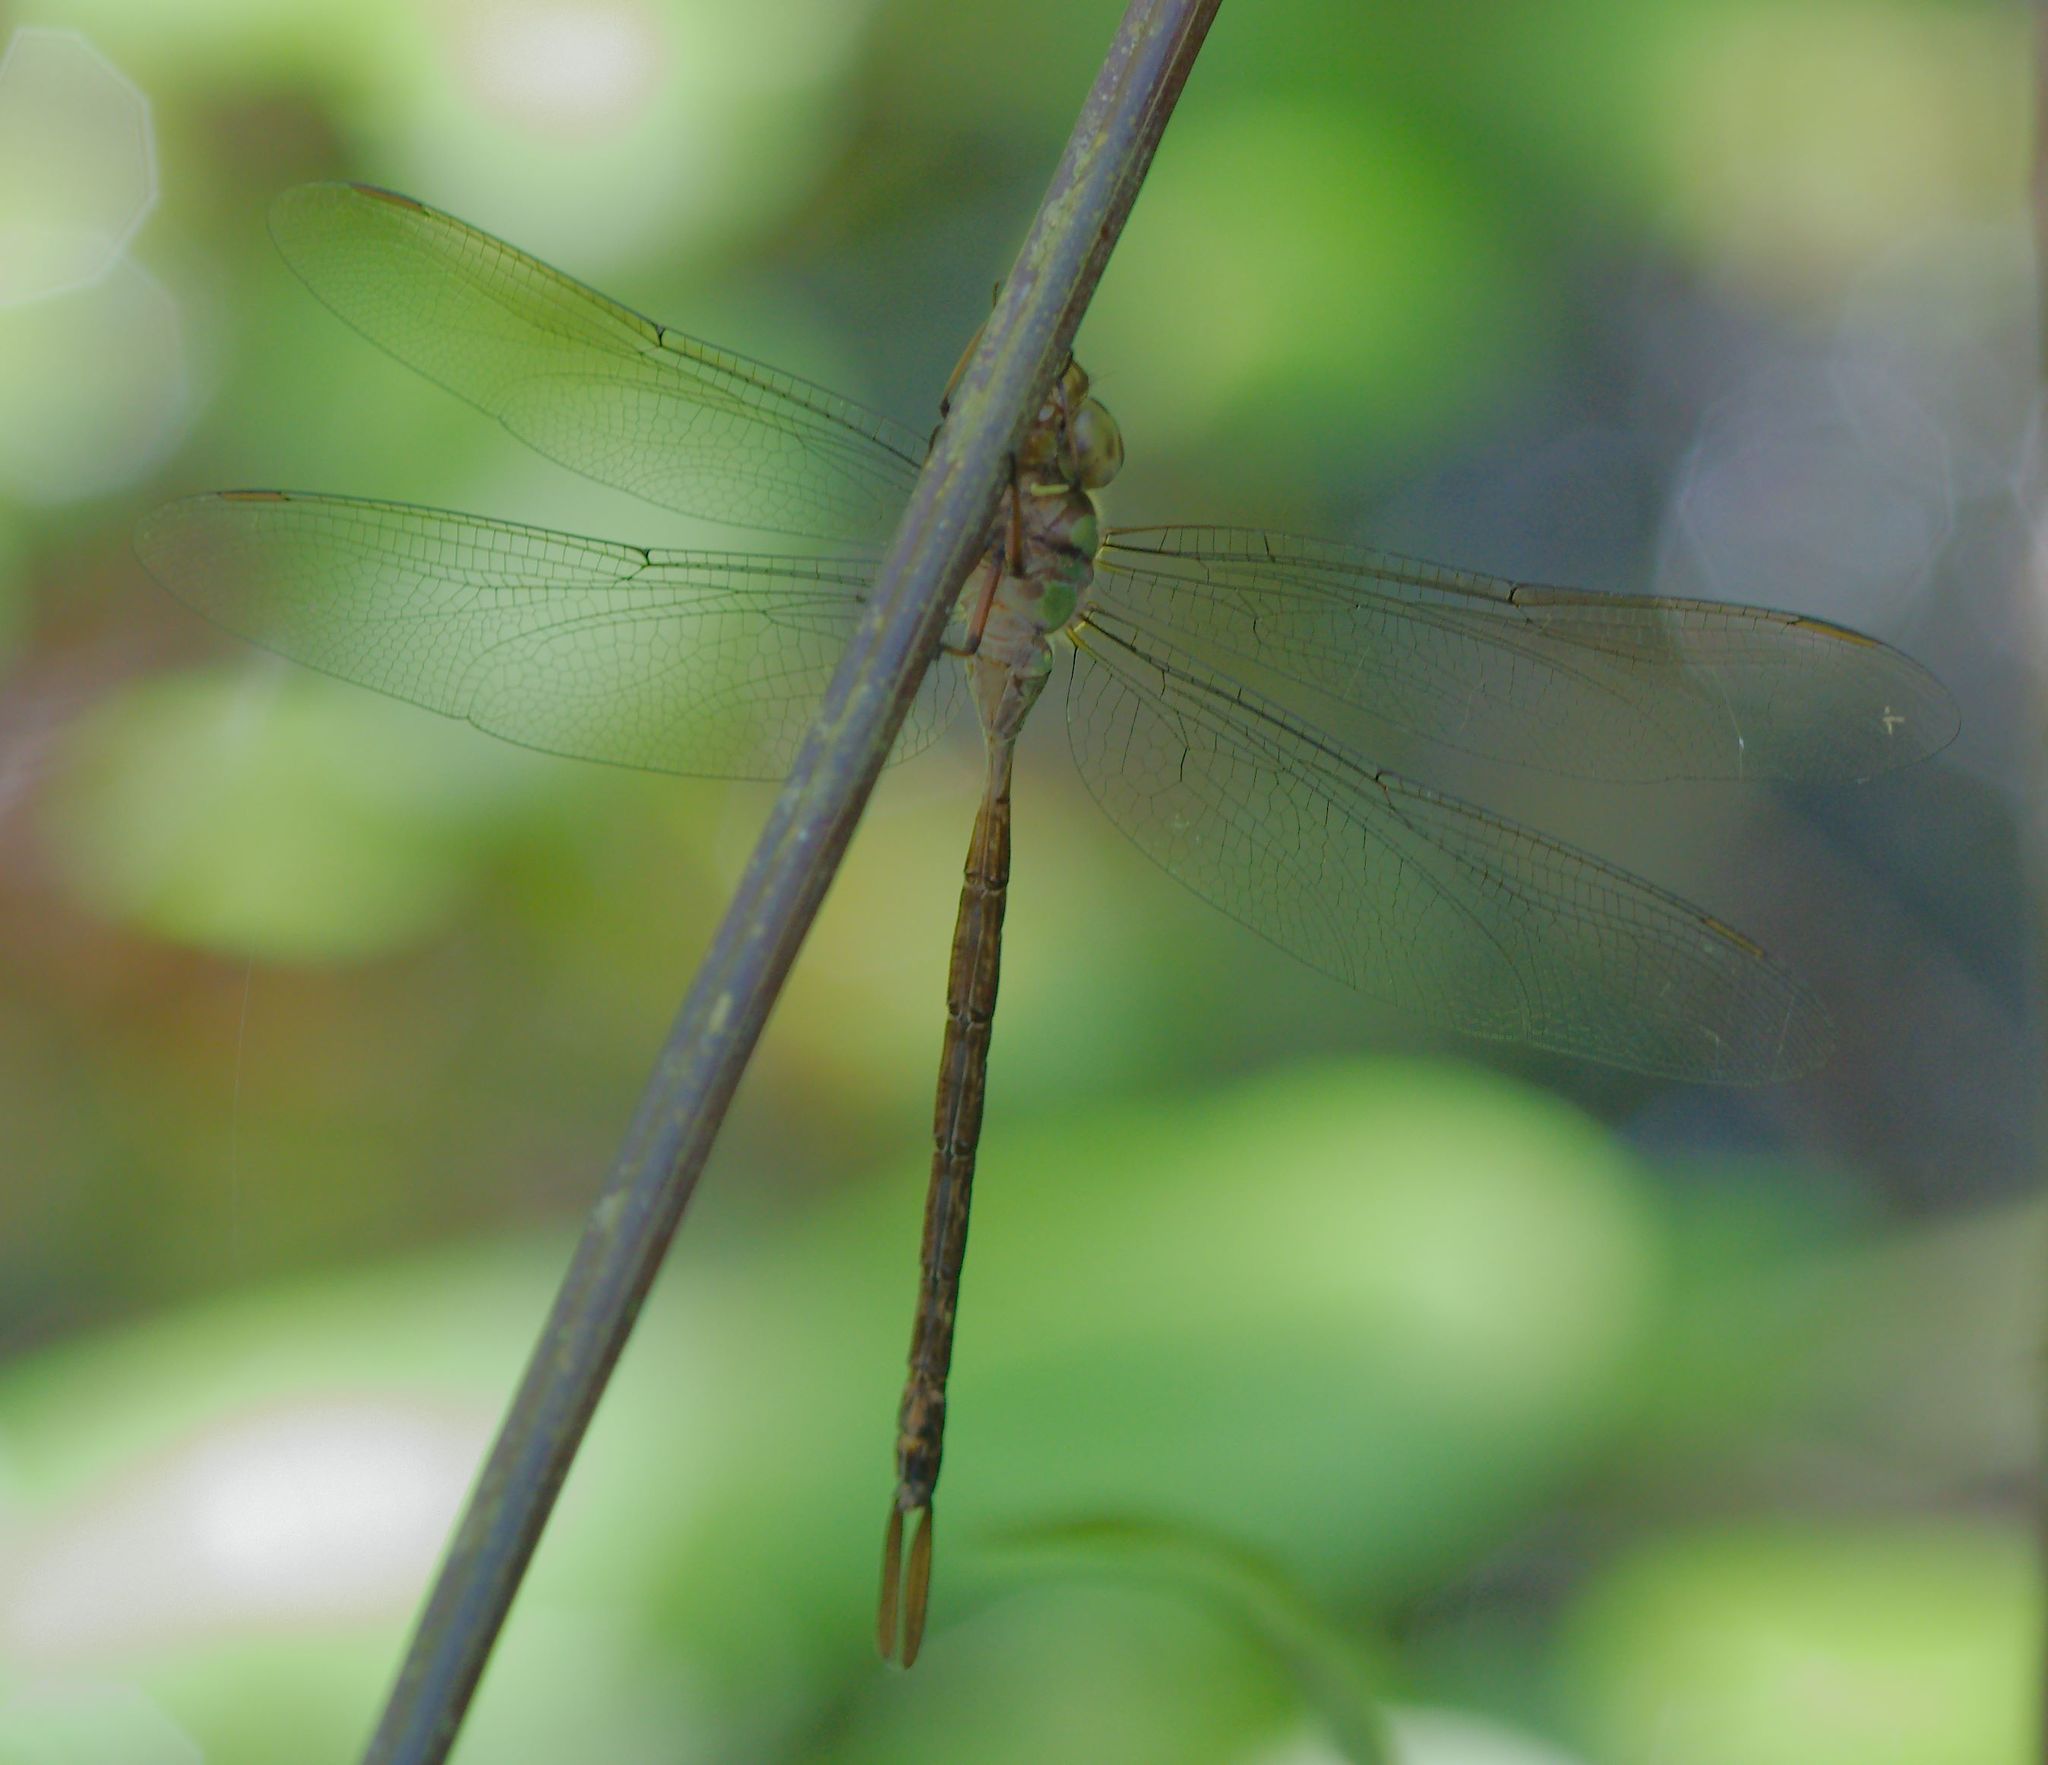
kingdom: Animalia
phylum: Arthropoda
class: Insecta
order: Odonata
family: Aeshnidae
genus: Triacanthagyna
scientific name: Triacanthagyna trifida
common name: Phantom darner
